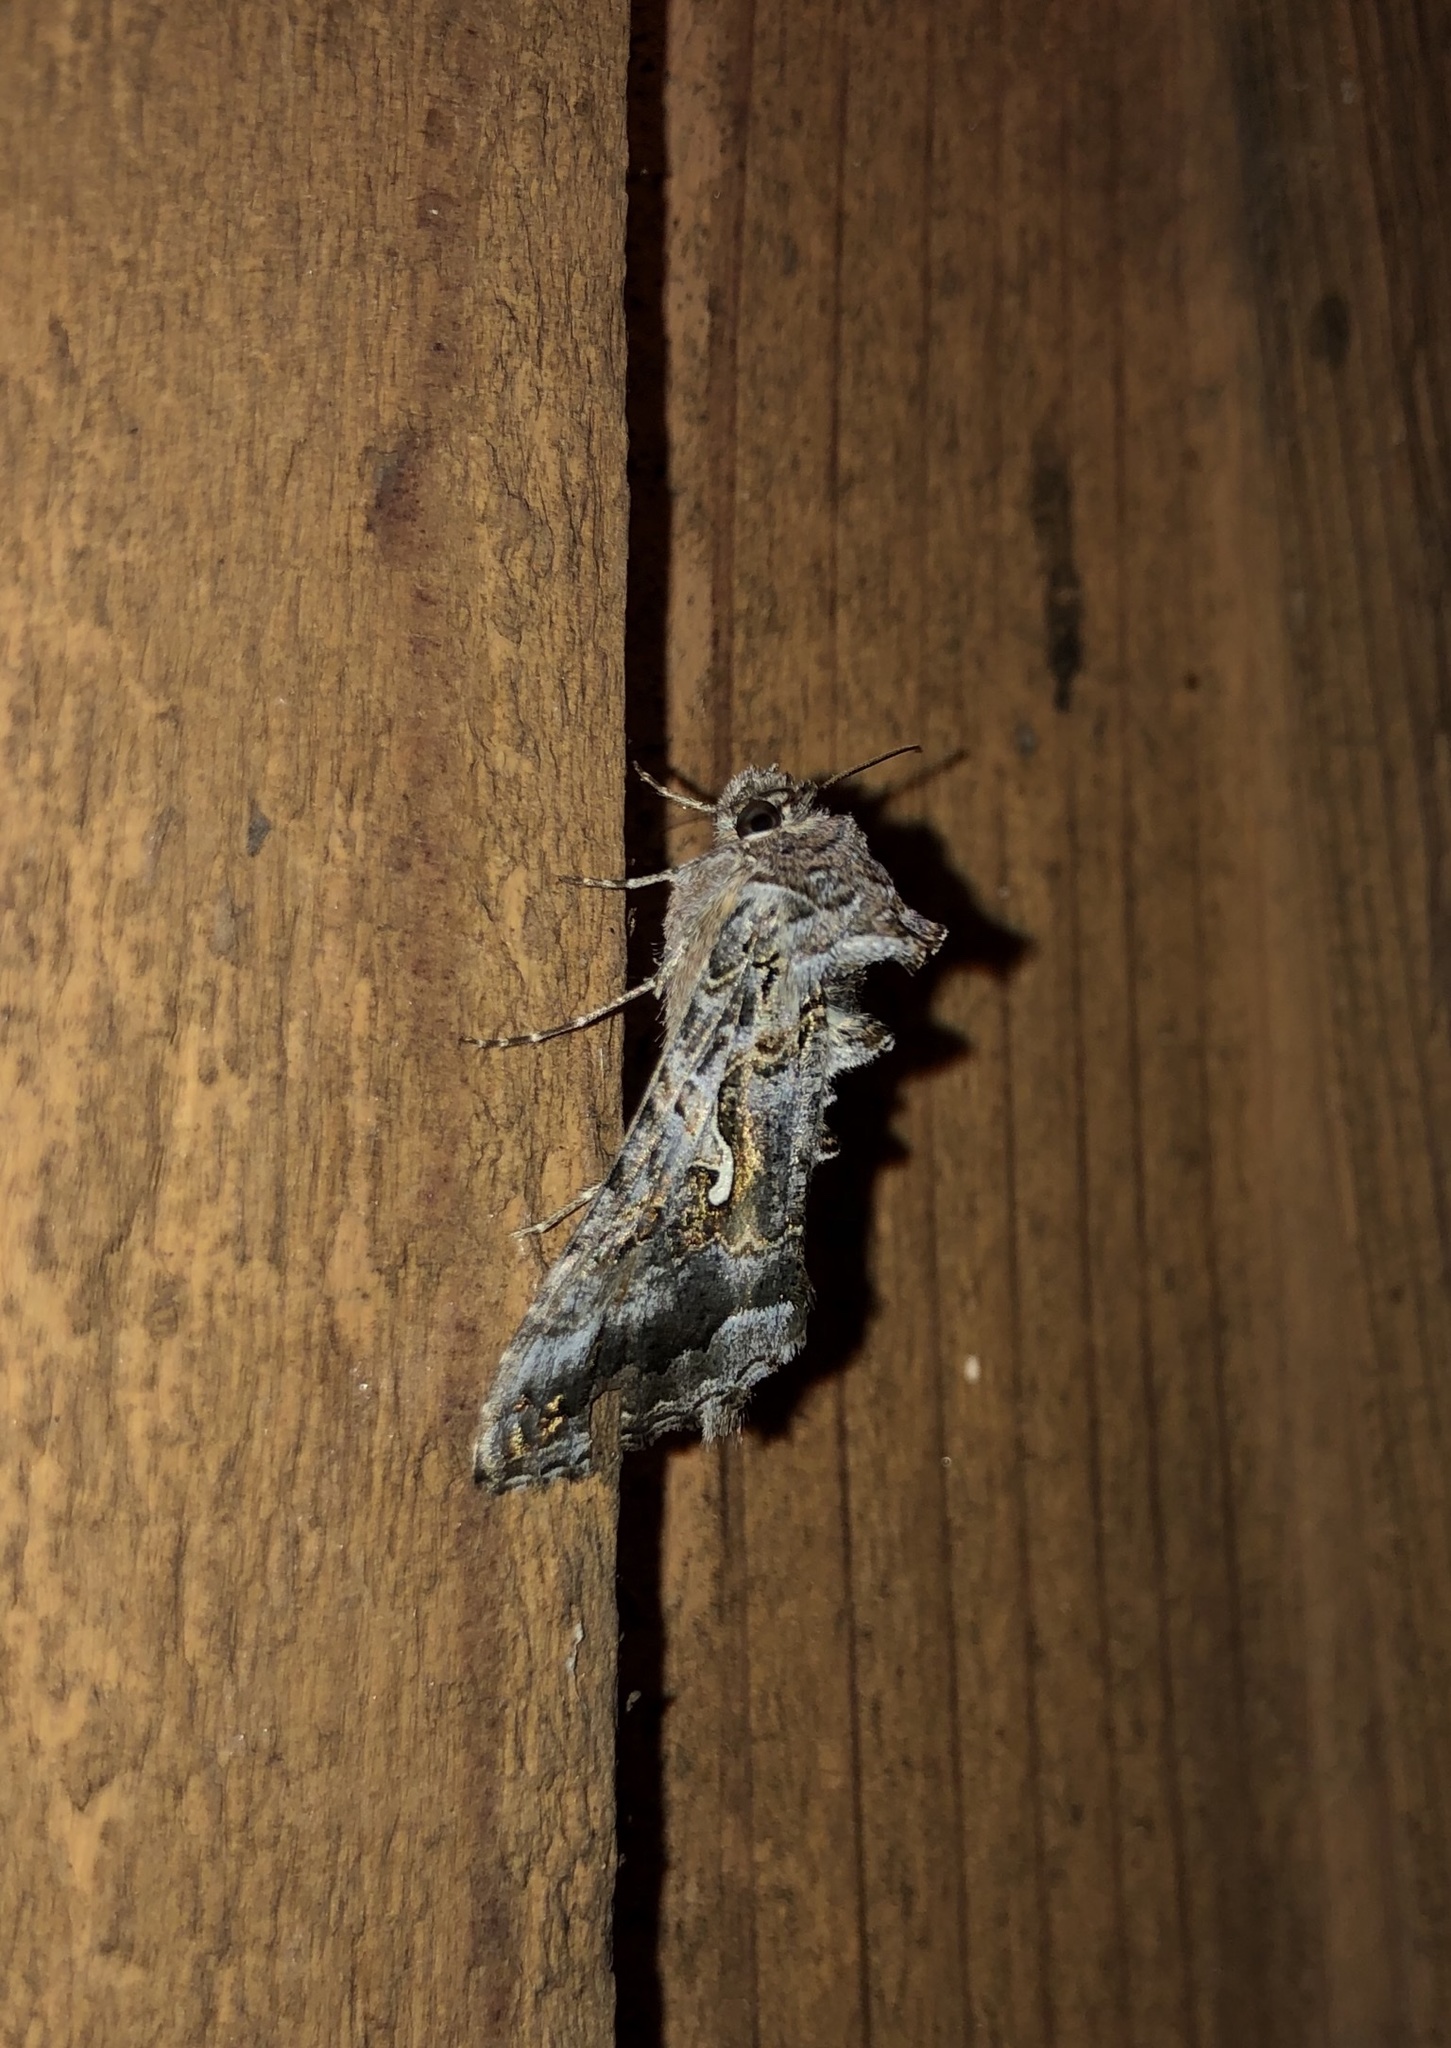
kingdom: Animalia
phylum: Arthropoda
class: Insecta
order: Lepidoptera
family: Noctuidae
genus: Autographa
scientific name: Autographa californica
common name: Alfalfa looper
